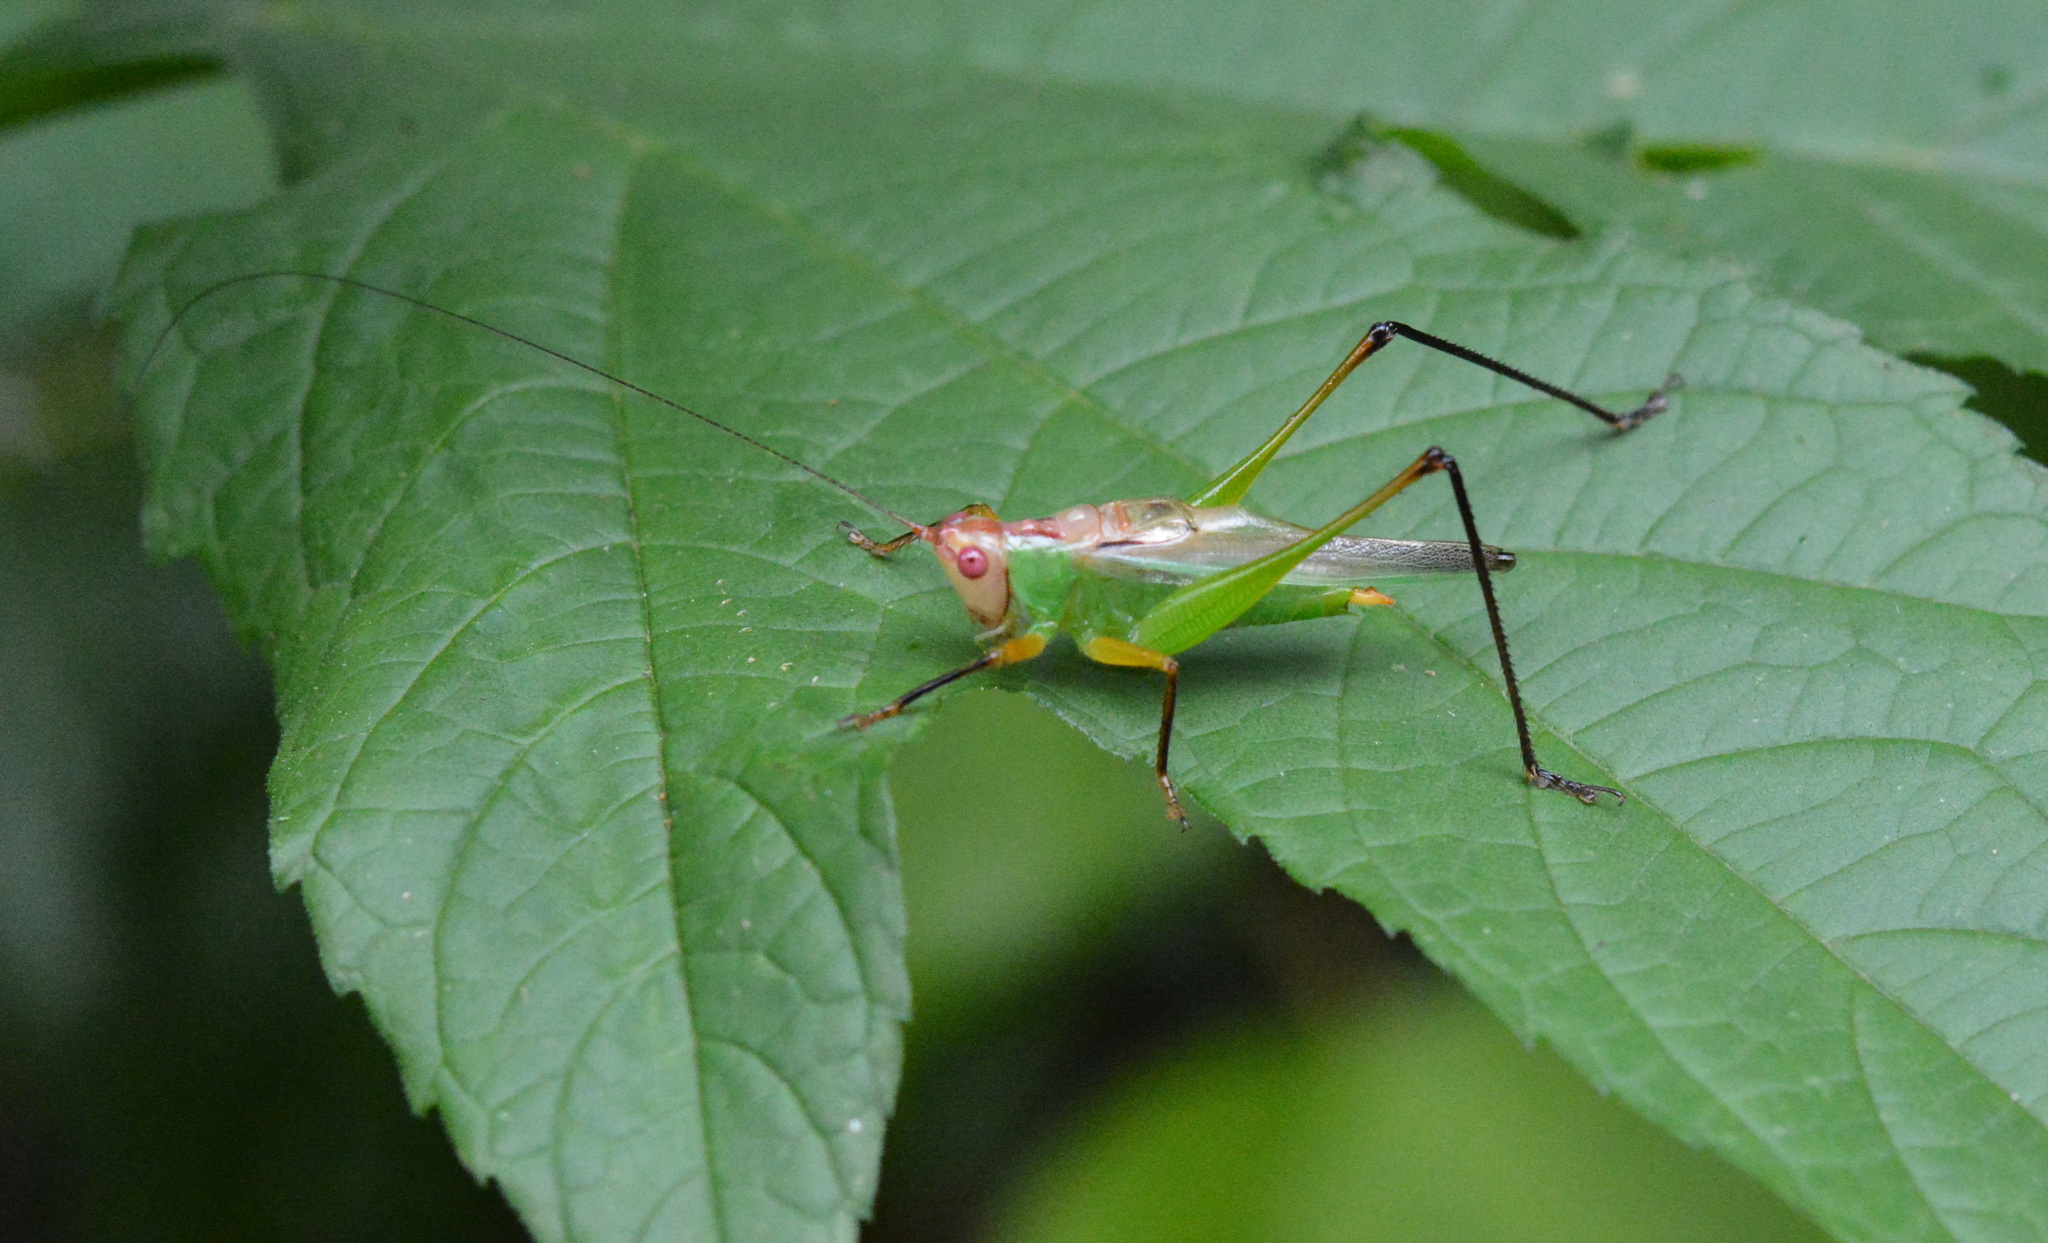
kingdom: Animalia
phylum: Arthropoda
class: Insecta
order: Orthoptera
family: Tettigoniidae
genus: Orchelimum
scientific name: Orchelimum nigripes
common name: Black-legged meadow katydid
